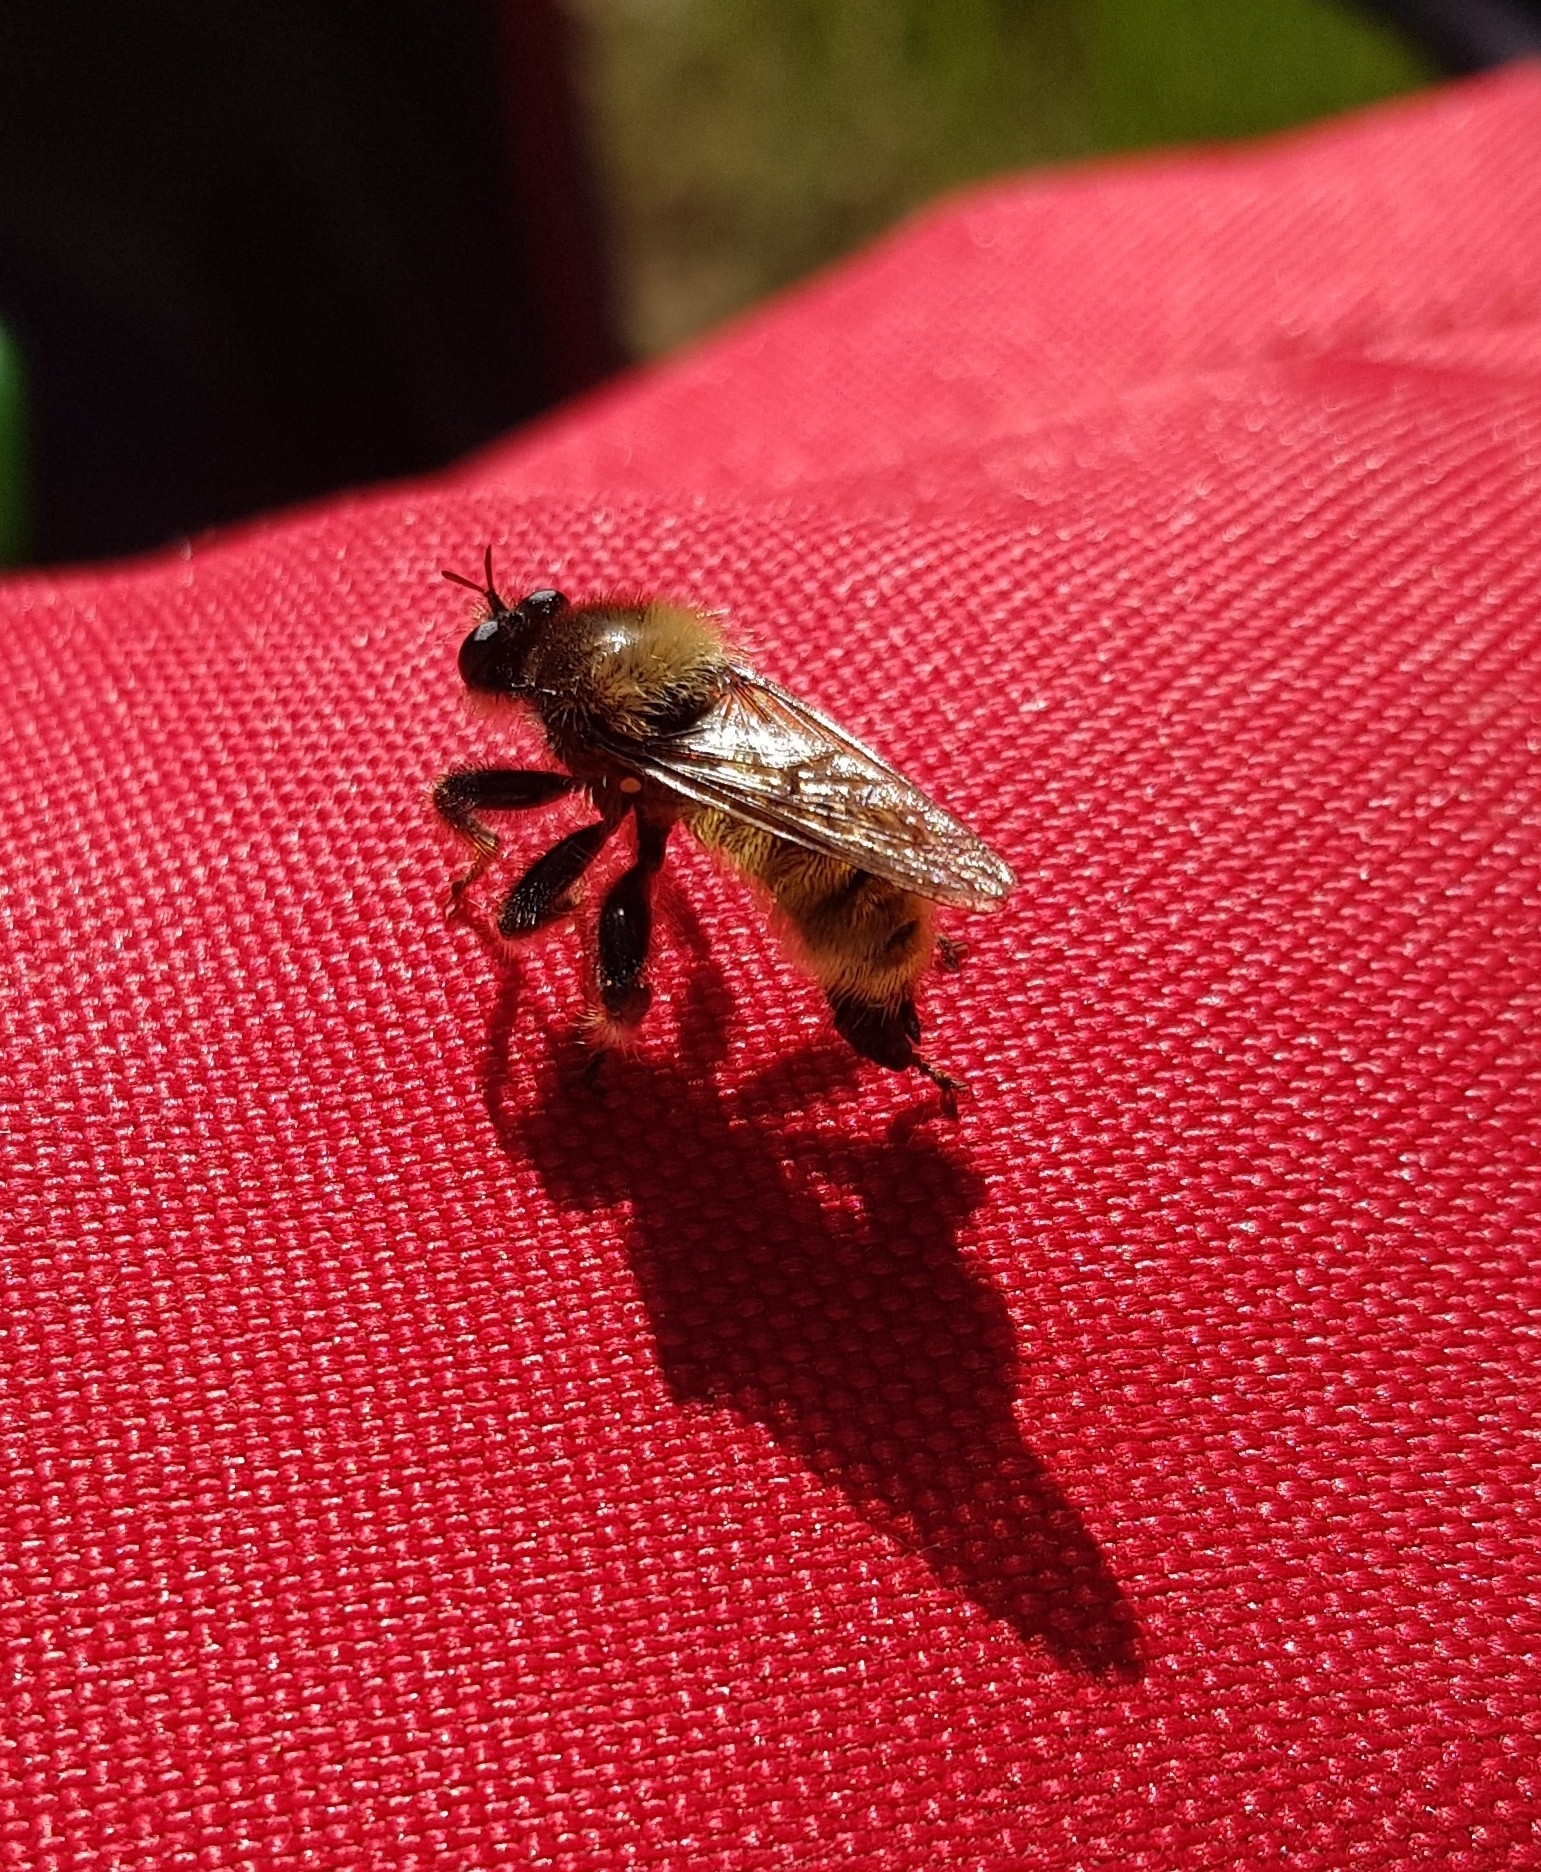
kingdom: Animalia
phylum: Arthropoda
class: Insecta
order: Diptera
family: Asilidae
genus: Laphria
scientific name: Laphria flava
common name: Bumblebee robberfly
